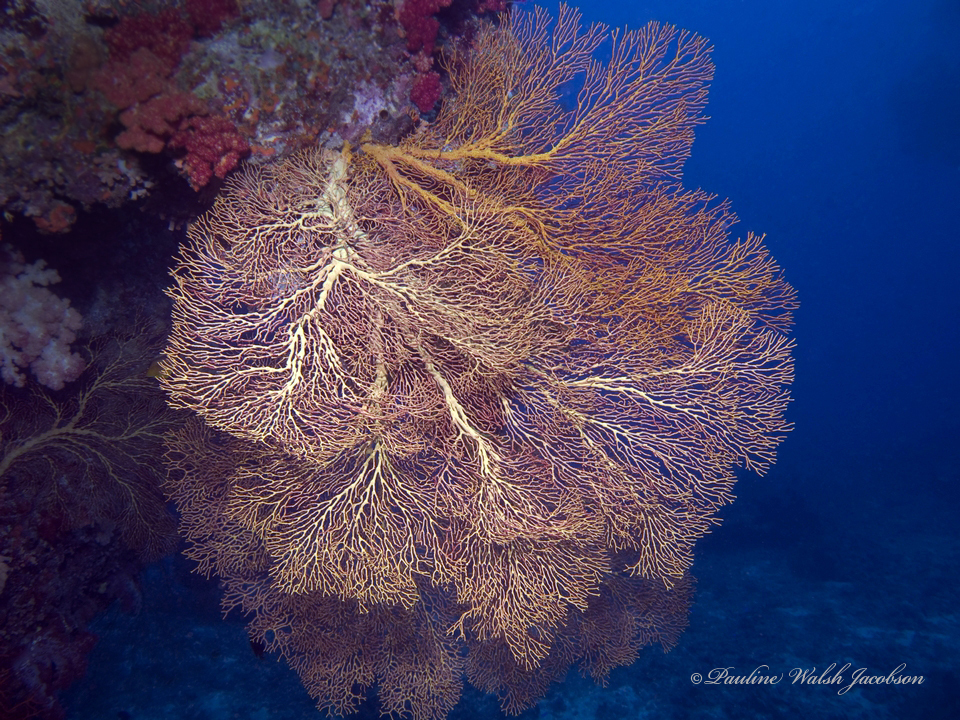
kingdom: Animalia
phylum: Cnidaria
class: Anthozoa
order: Malacalcyonacea
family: Melithaeidae
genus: Melithaea
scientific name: Melithaea ochracea
